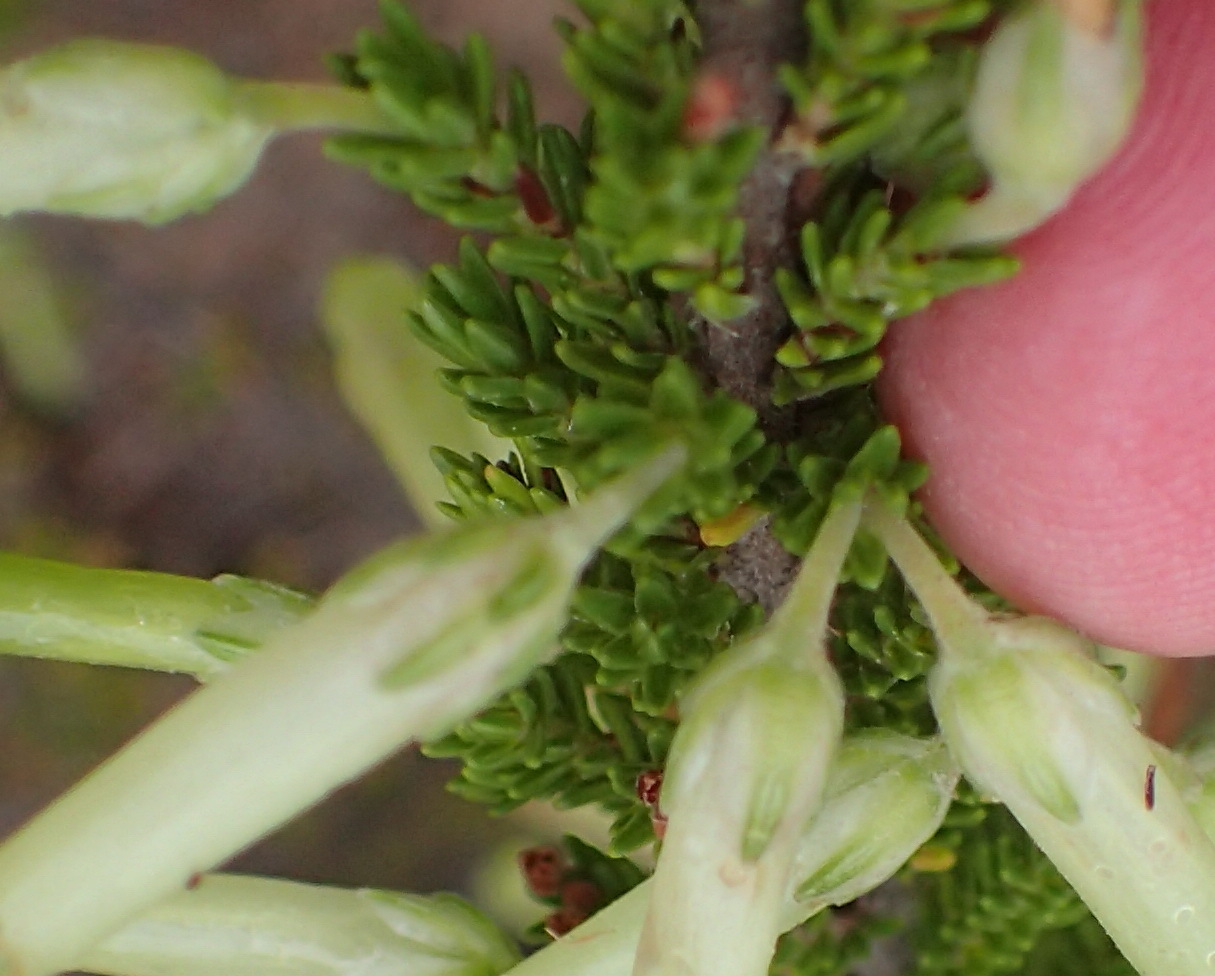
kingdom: Plantae
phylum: Tracheophyta
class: Magnoliopsida
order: Ericales
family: Ericaceae
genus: Erica
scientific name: Erica discolor
